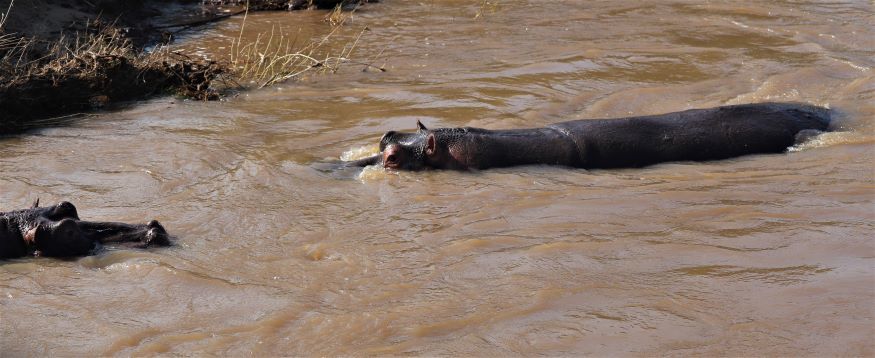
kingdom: Animalia
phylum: Chordata
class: Mammalia
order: Artiodactyla
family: Hippopotamidae
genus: Hippopotamus
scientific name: Hippopotamus amphibius
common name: Common hippopotamus
